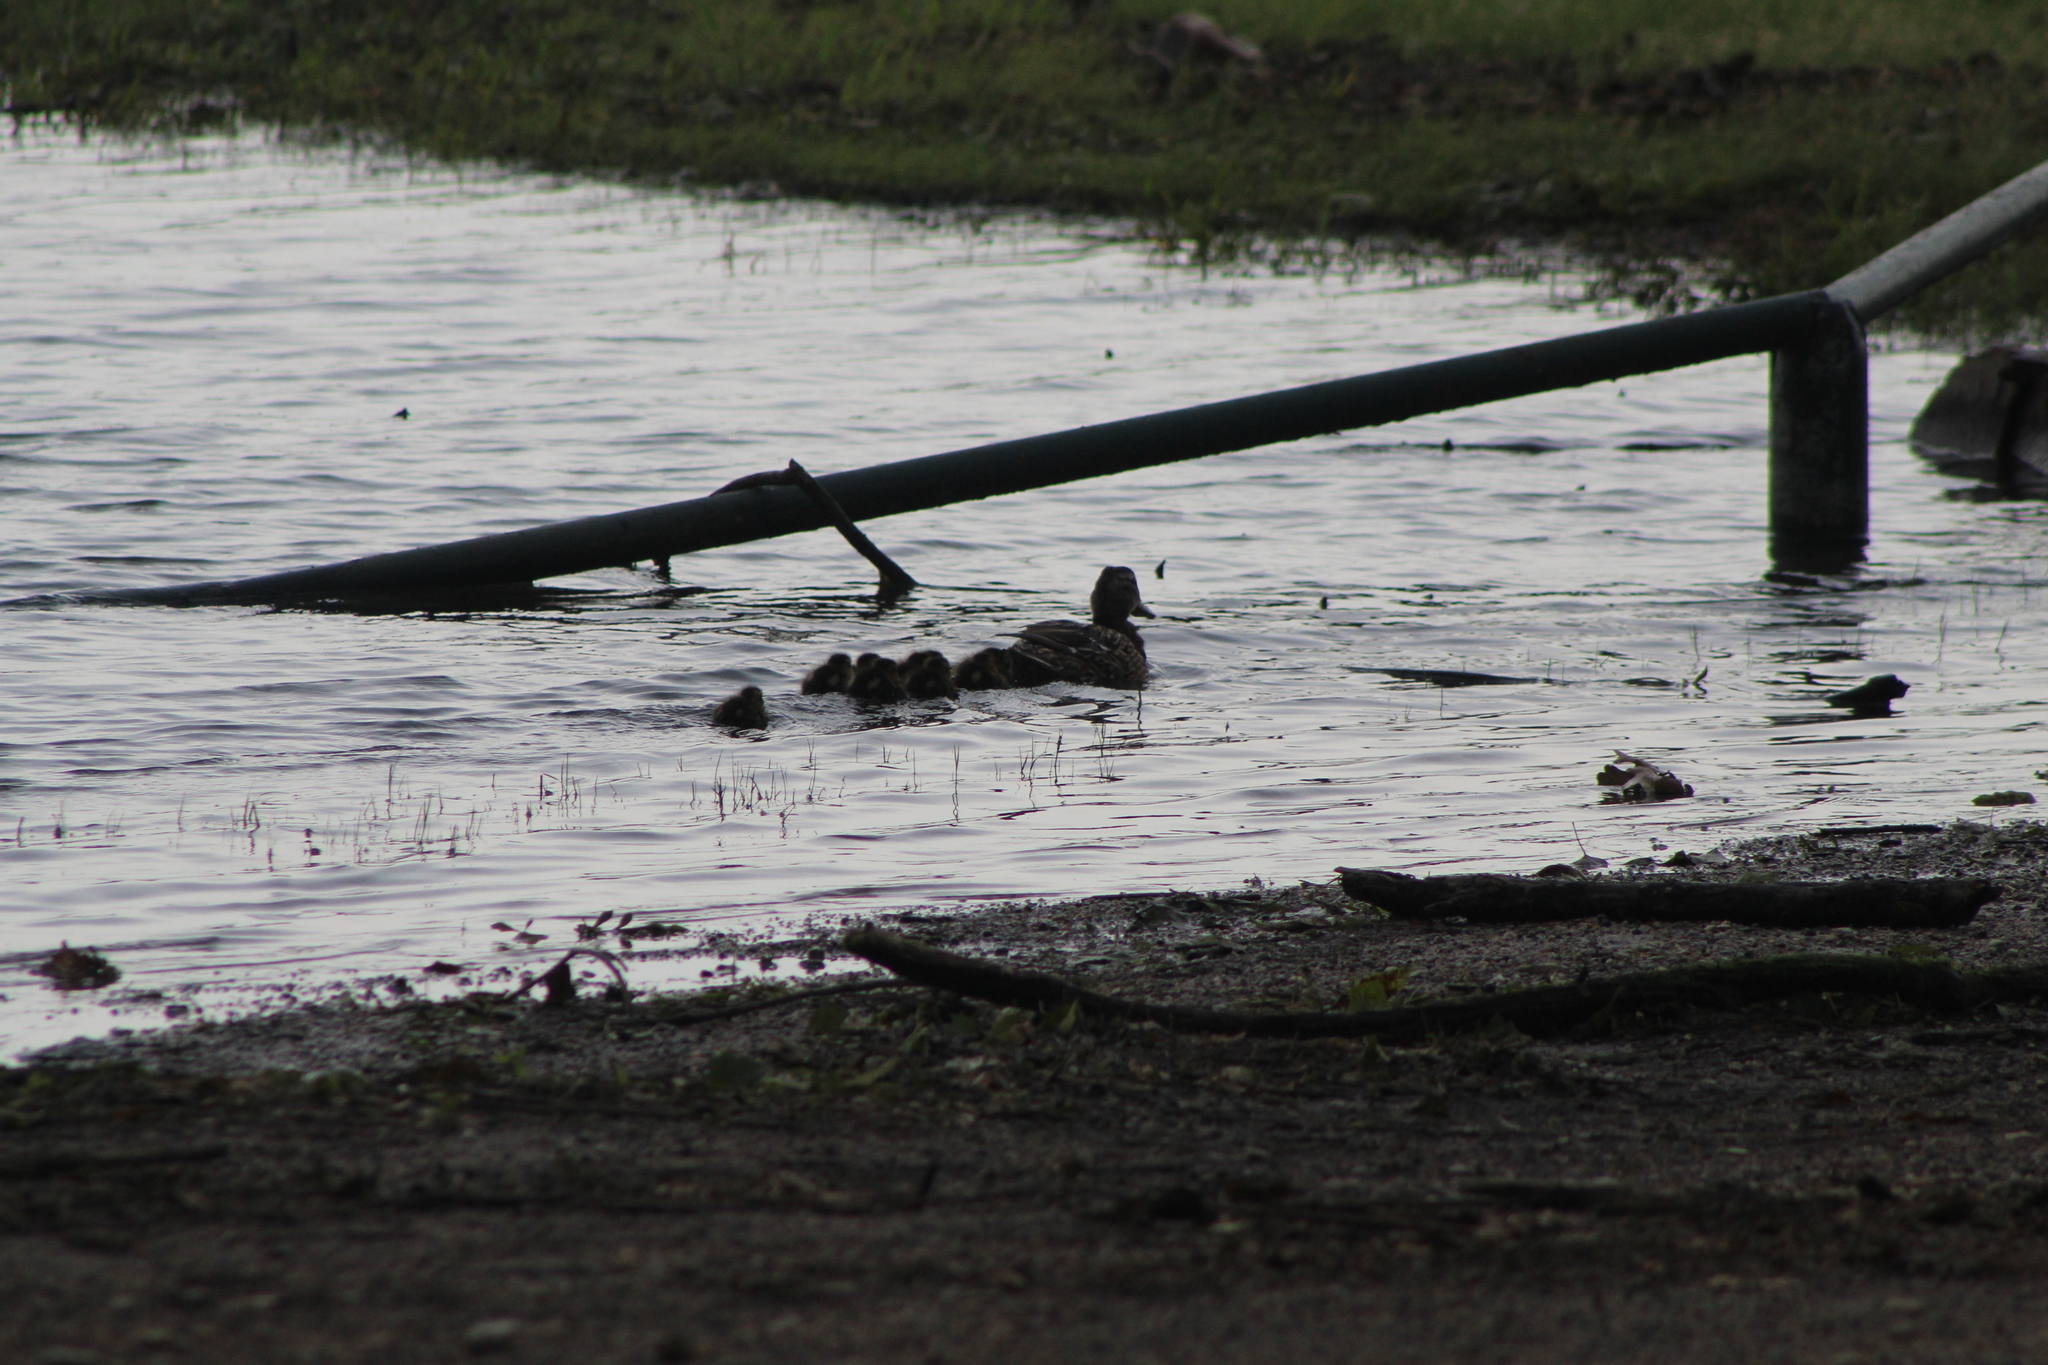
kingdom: Animalia
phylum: Chordata
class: Aves
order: Anseriformes
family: Anatidae
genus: Anas
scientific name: Anas platyrhynchos
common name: Mallard
